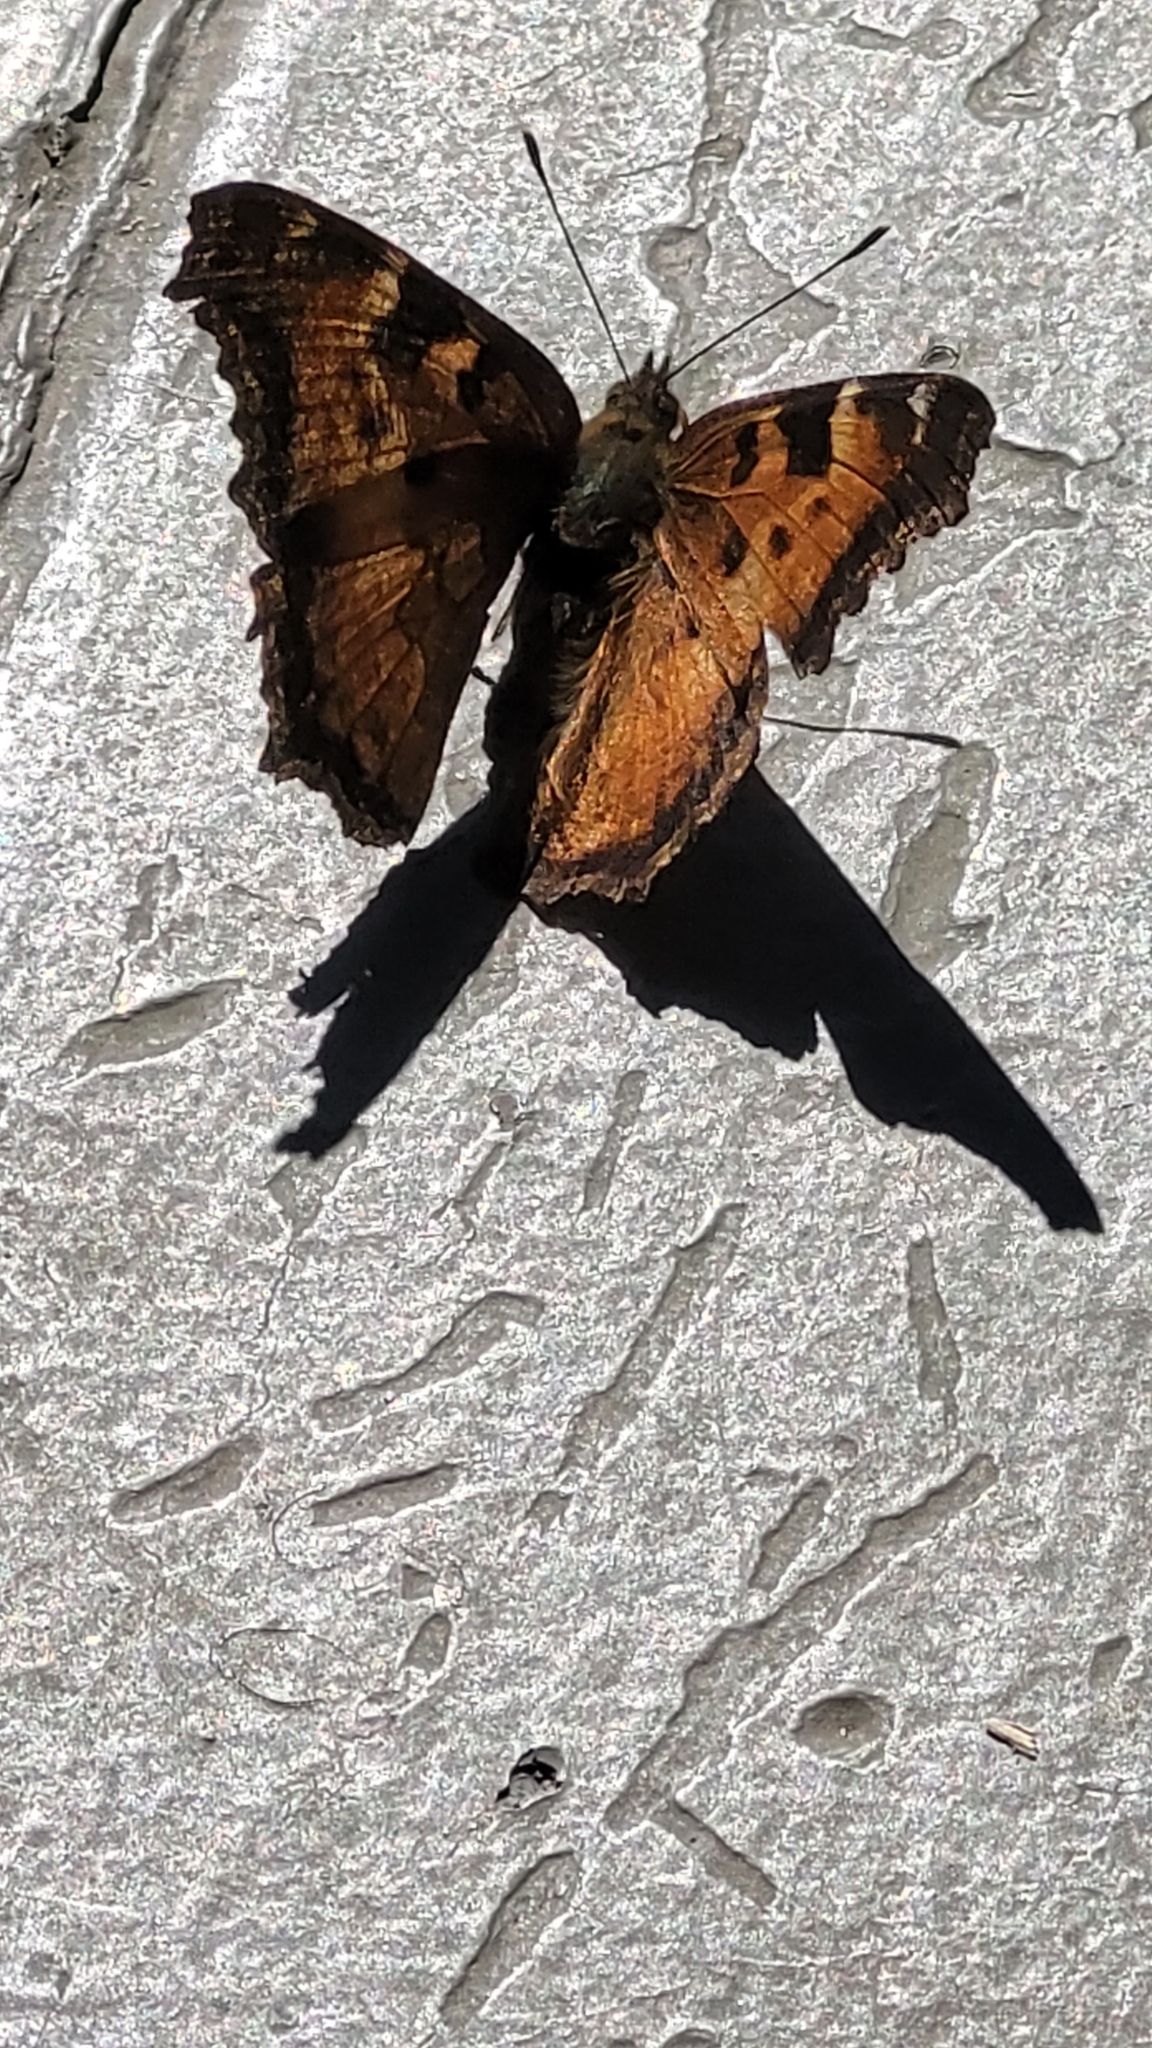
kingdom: Animalia
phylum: Arthropoda
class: Insecta
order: Lepidoptera
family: Nymphalidae
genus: Nymphalis
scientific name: Nymphalis californica
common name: California tortoiseshell
